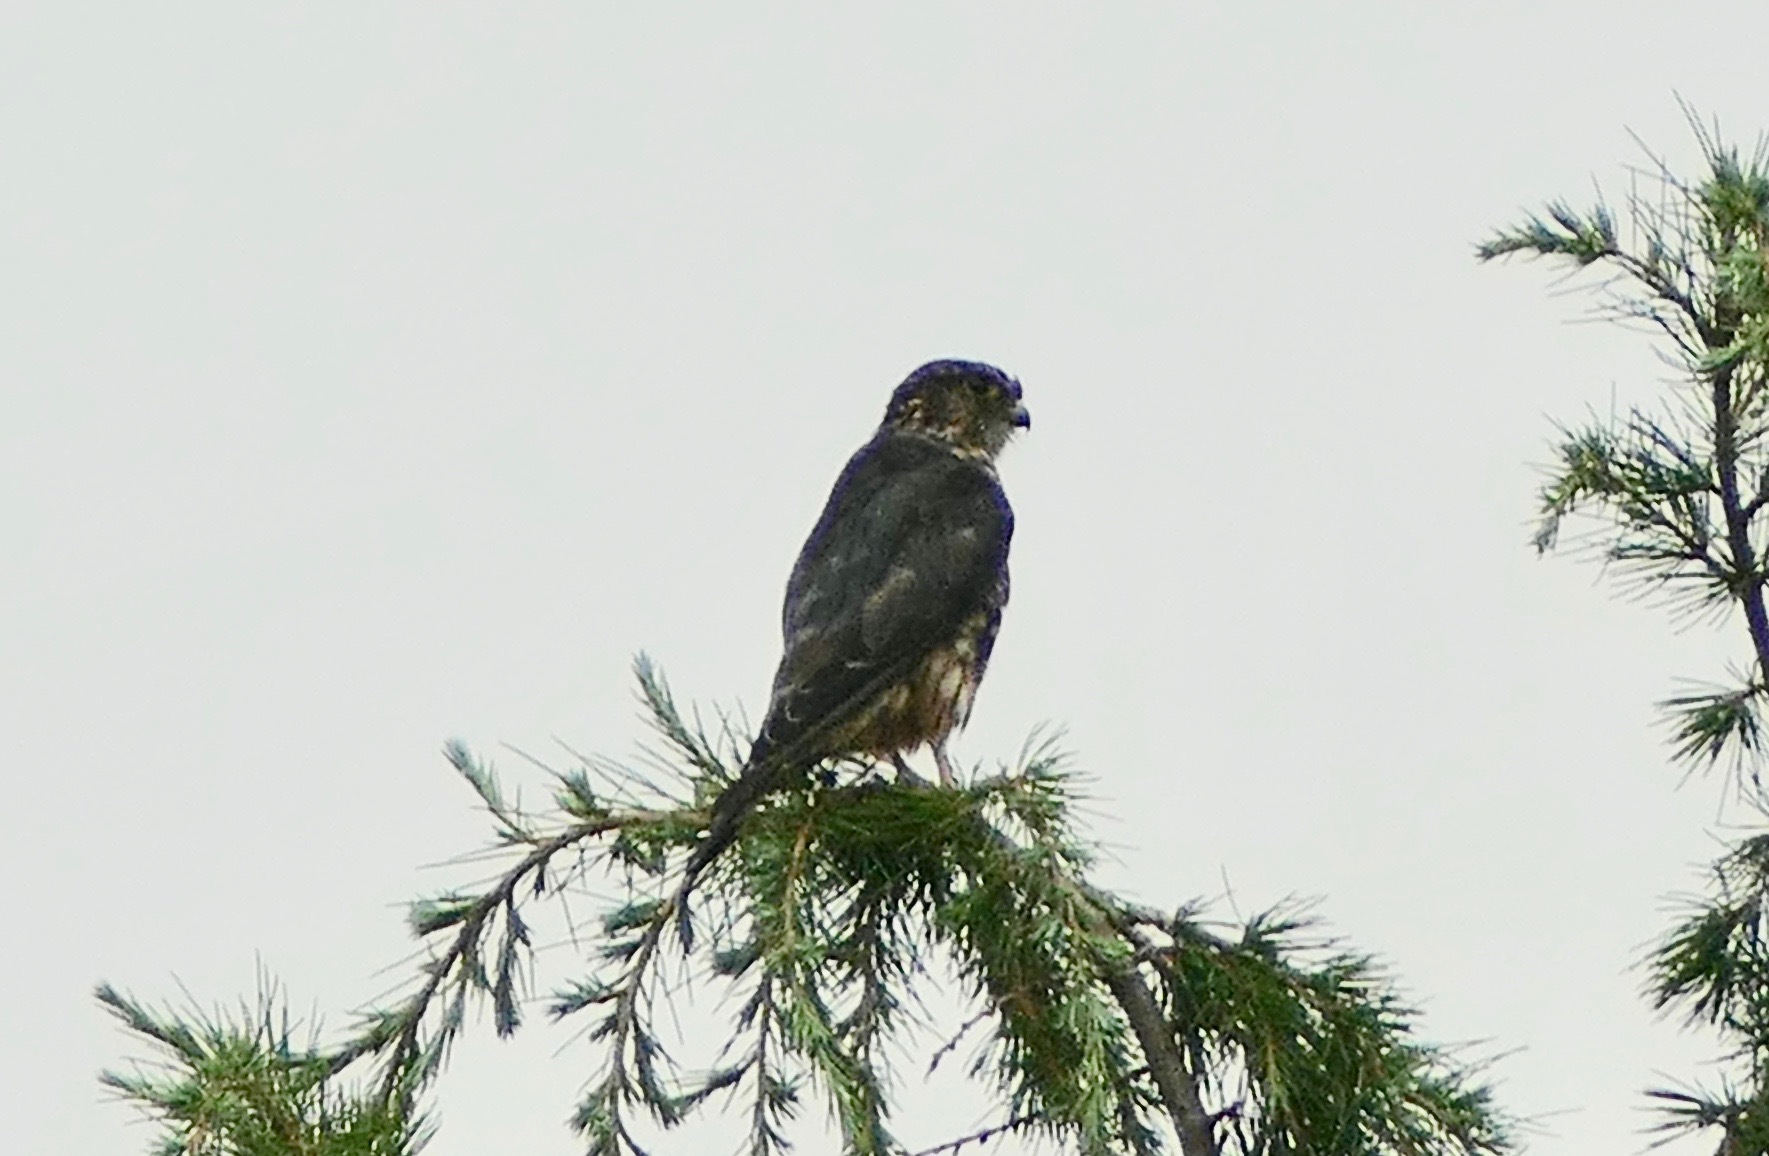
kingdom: Animalia
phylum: Chordata
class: Aves
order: Falconiformes
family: Falconidae
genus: Falco
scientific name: Falco columbarius
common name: Merlin
